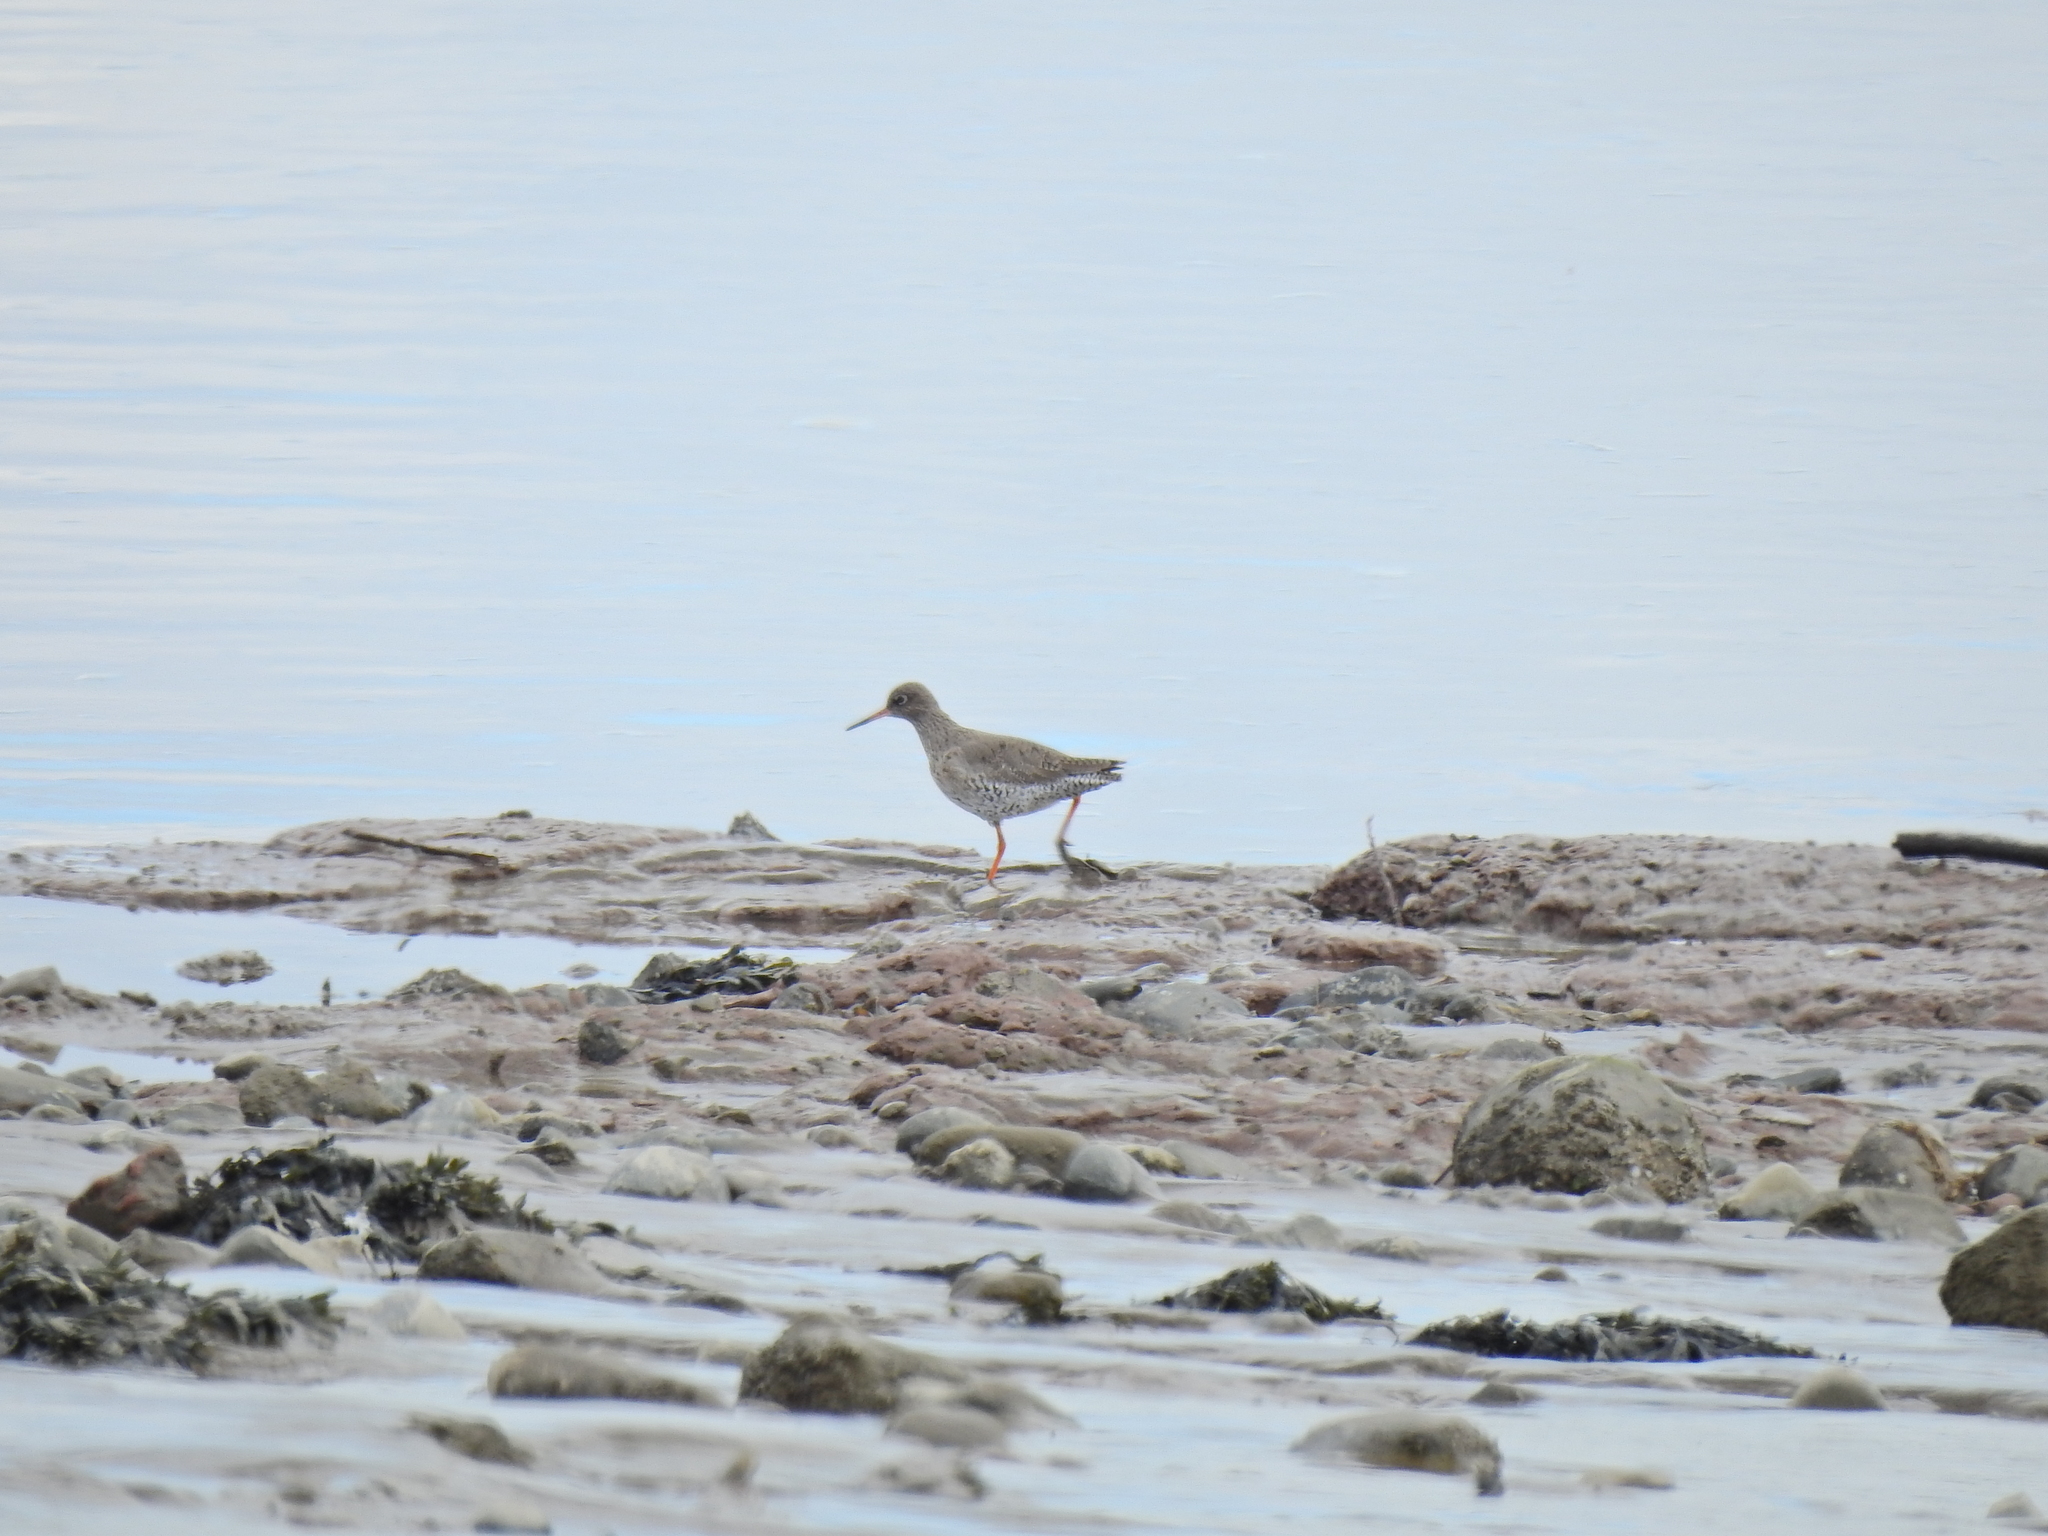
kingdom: Animalia
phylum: Chordata
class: Aves
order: Charadriiformes
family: Scolopacidae
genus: Tringa
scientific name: Tringa totanus
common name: Common redshank
